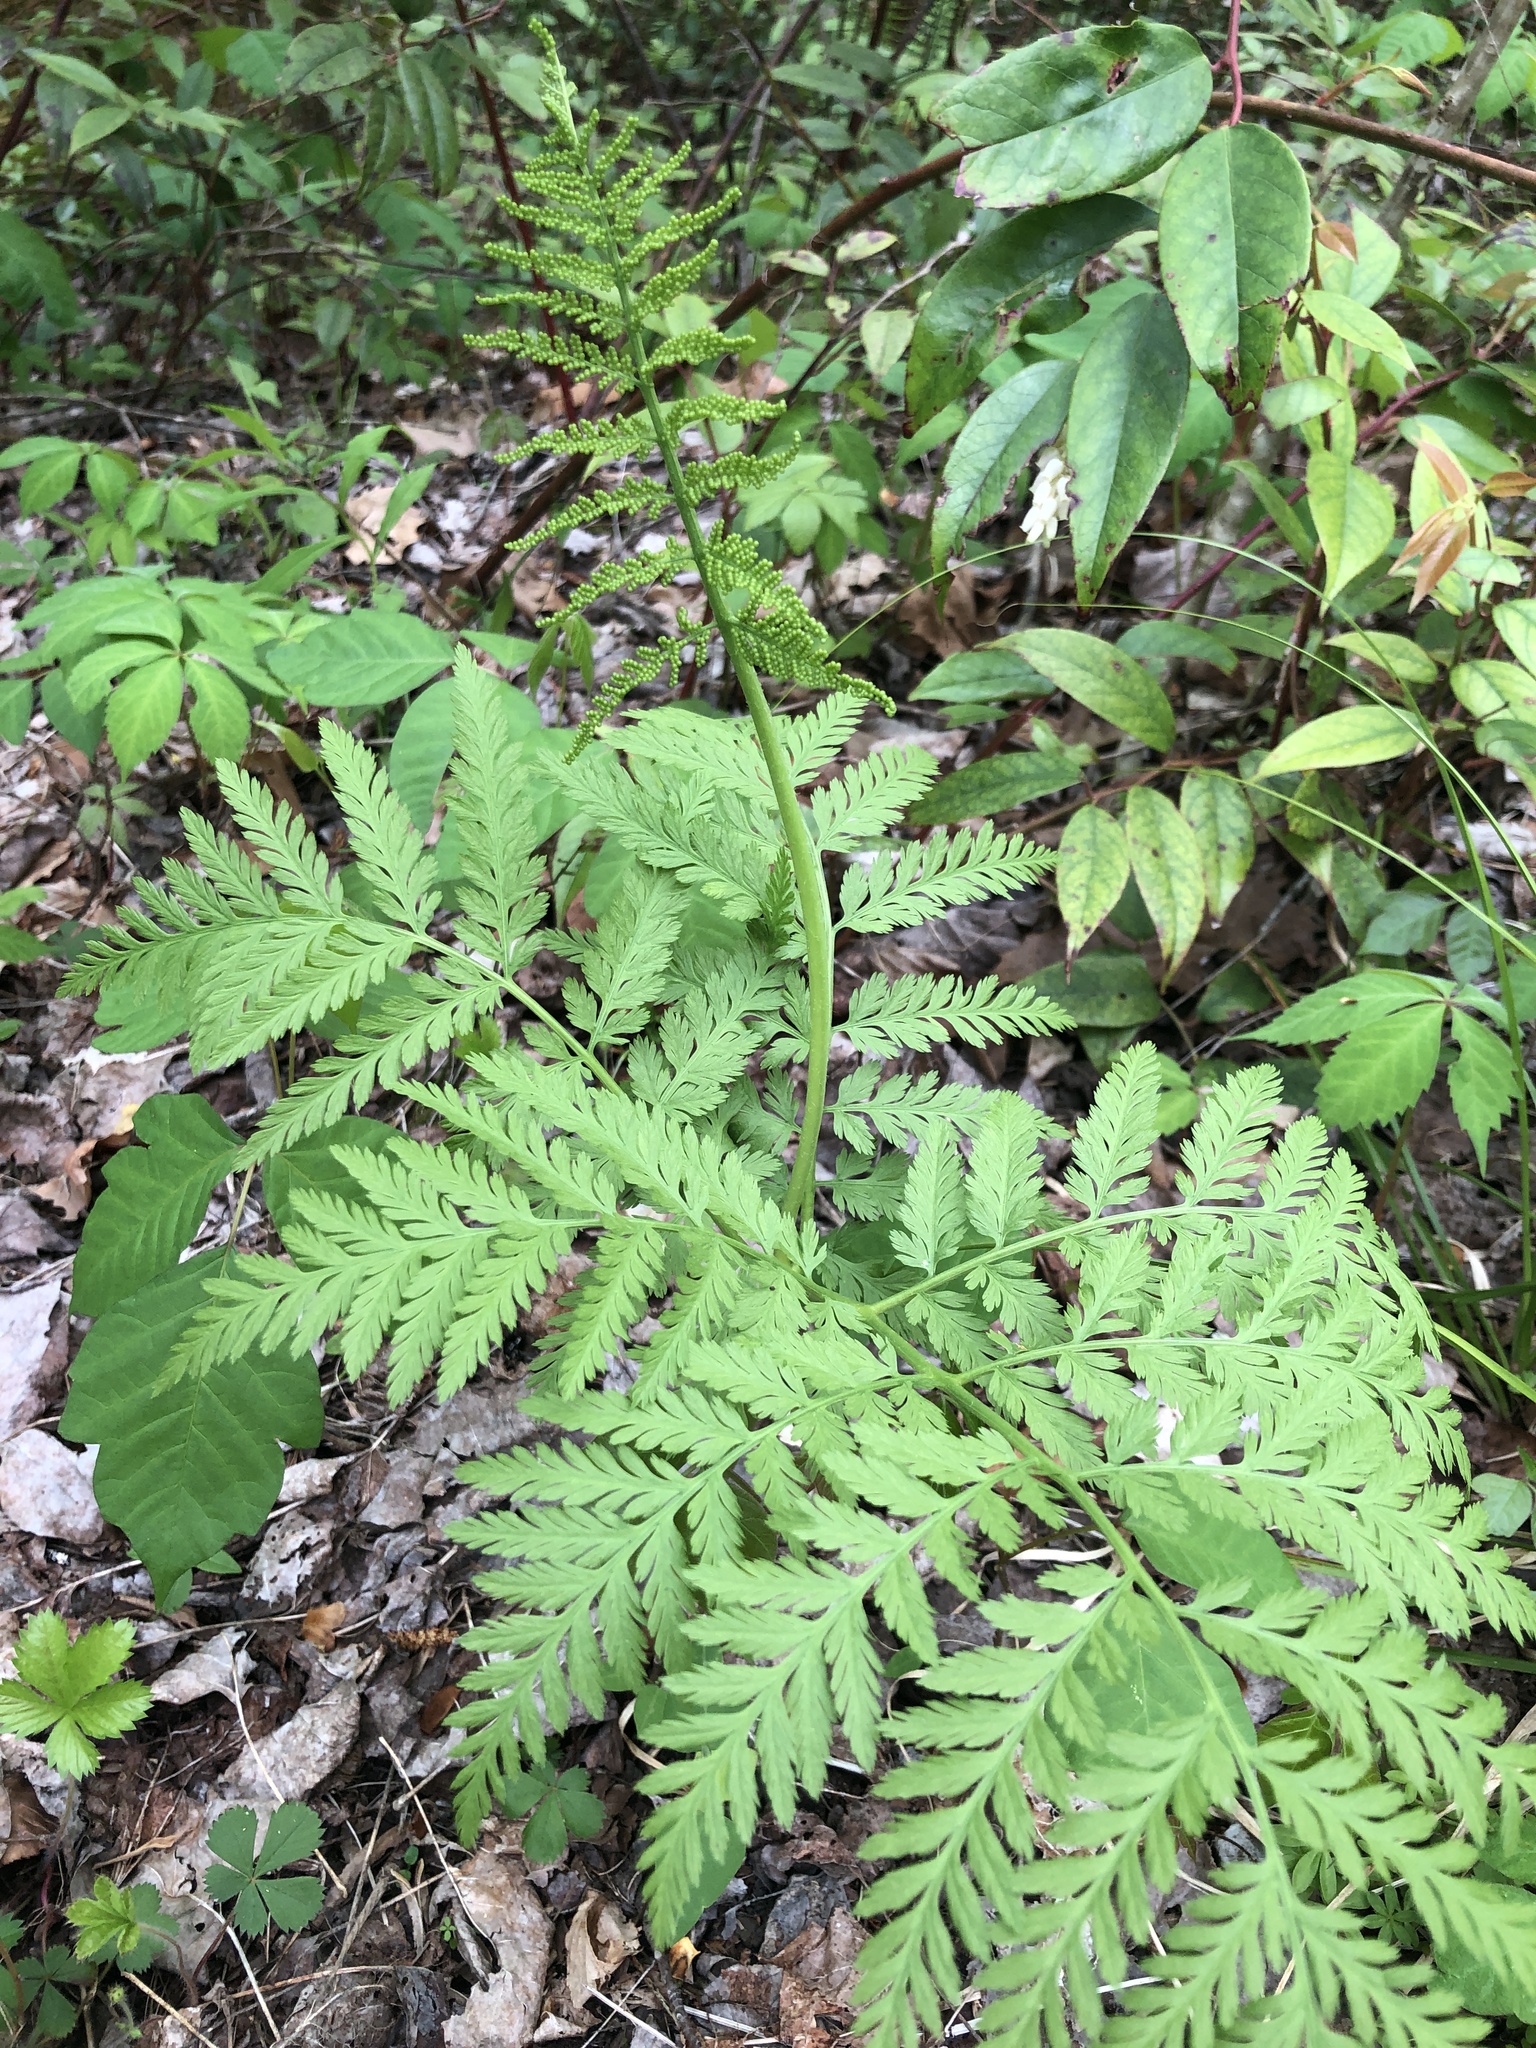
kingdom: Plantae
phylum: Tracheophyta
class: Polypodiopsida
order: Ophioglossales
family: Ophioglossaceae
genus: Botrypus
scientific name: Botrypus virginianus
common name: Common grapefern
